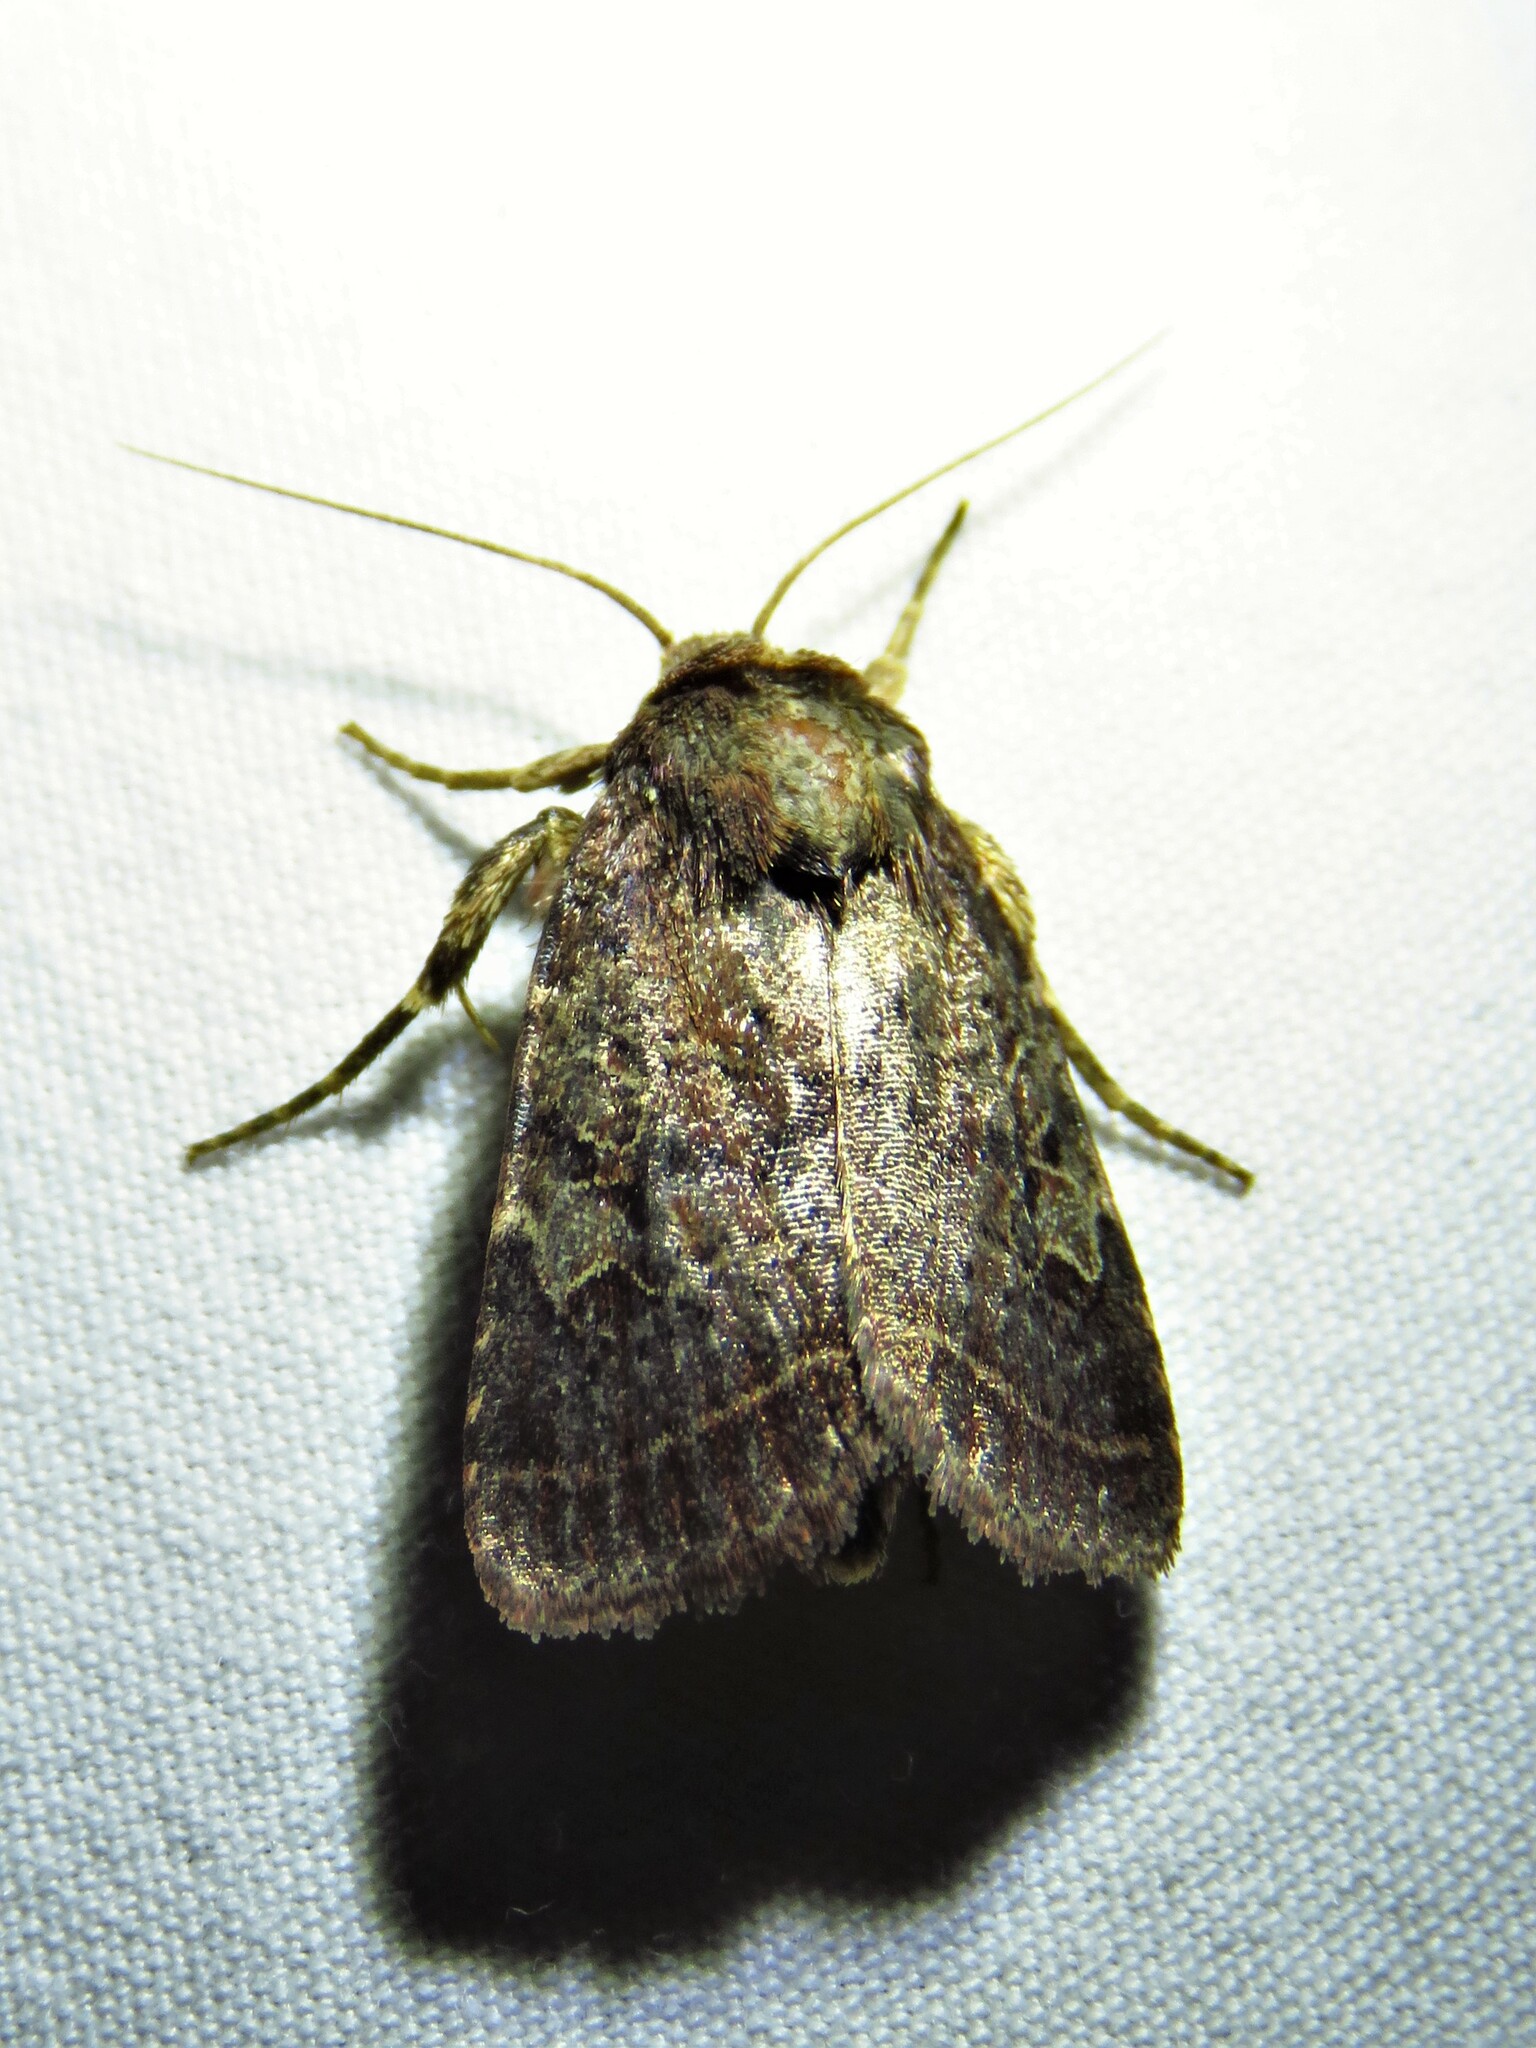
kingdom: Animalia
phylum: Arthropoda
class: Insecta
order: Lepidoptera
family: Noctuidae
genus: Orthodes
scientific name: Orthodes furtiva
